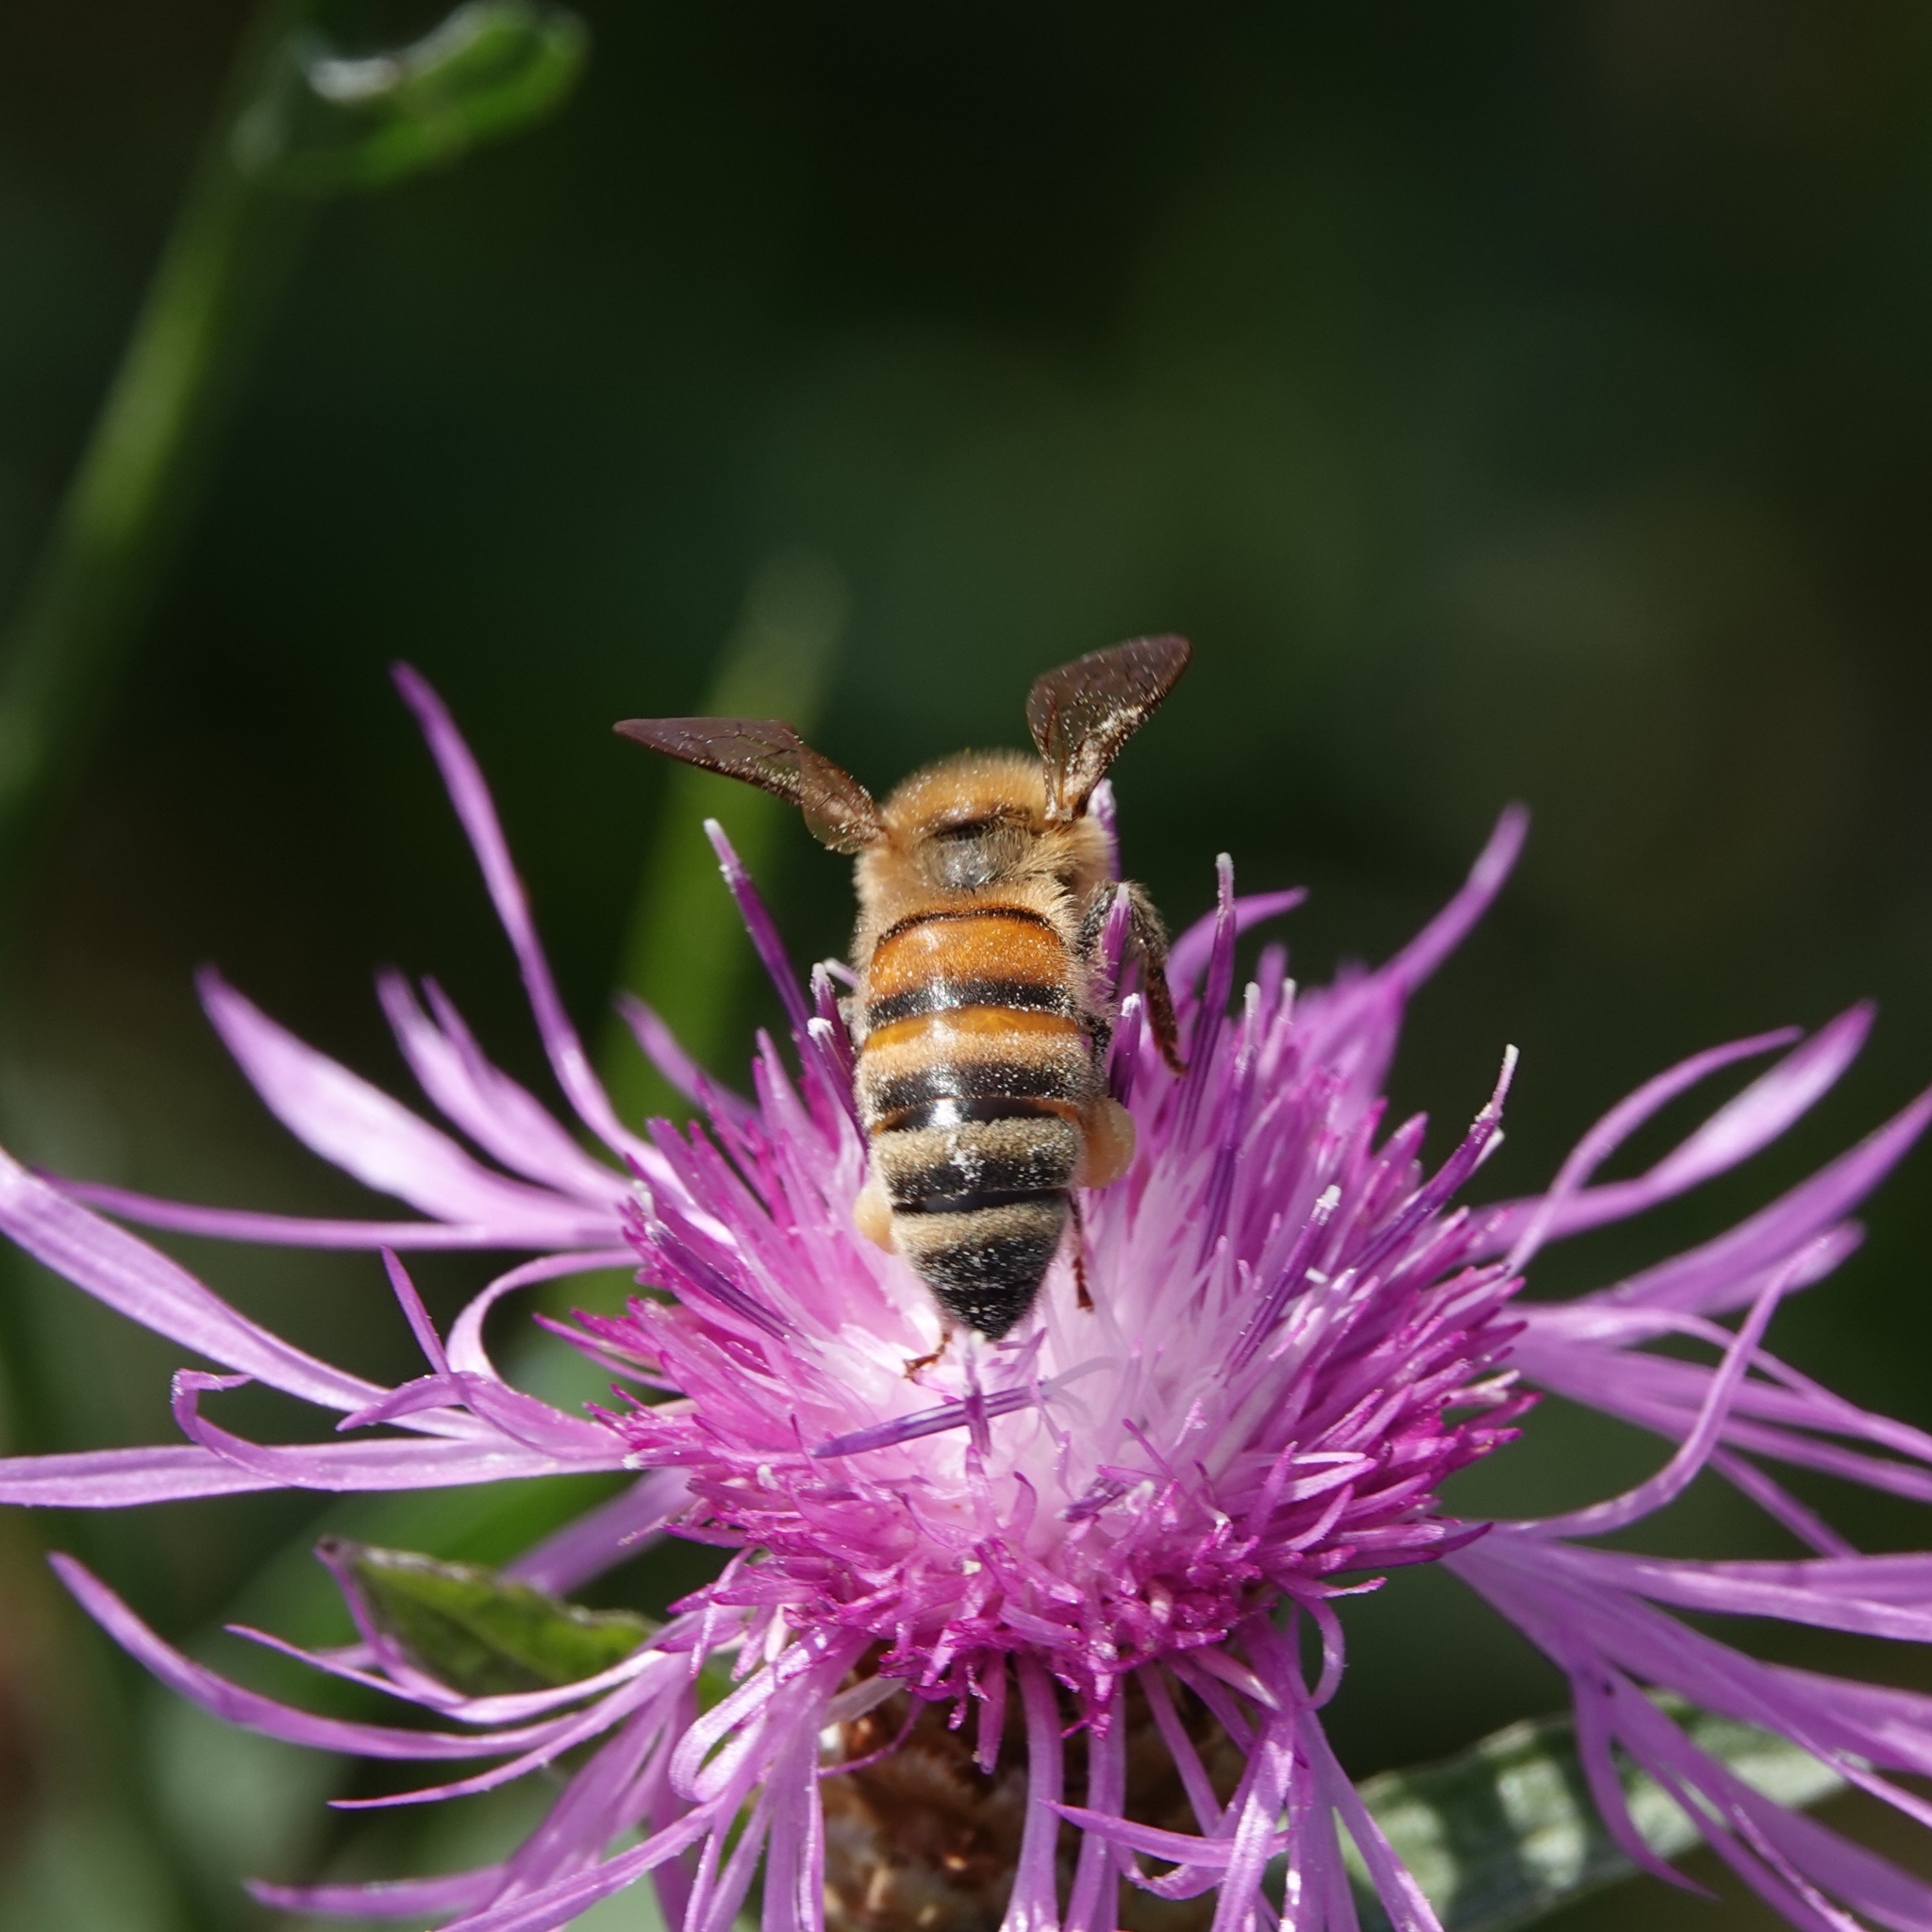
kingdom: Animalia
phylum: Arthropoda
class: Insecta
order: Hymenoptera
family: Apidae
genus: Apis
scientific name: Apis mellifera
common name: Honey bee
